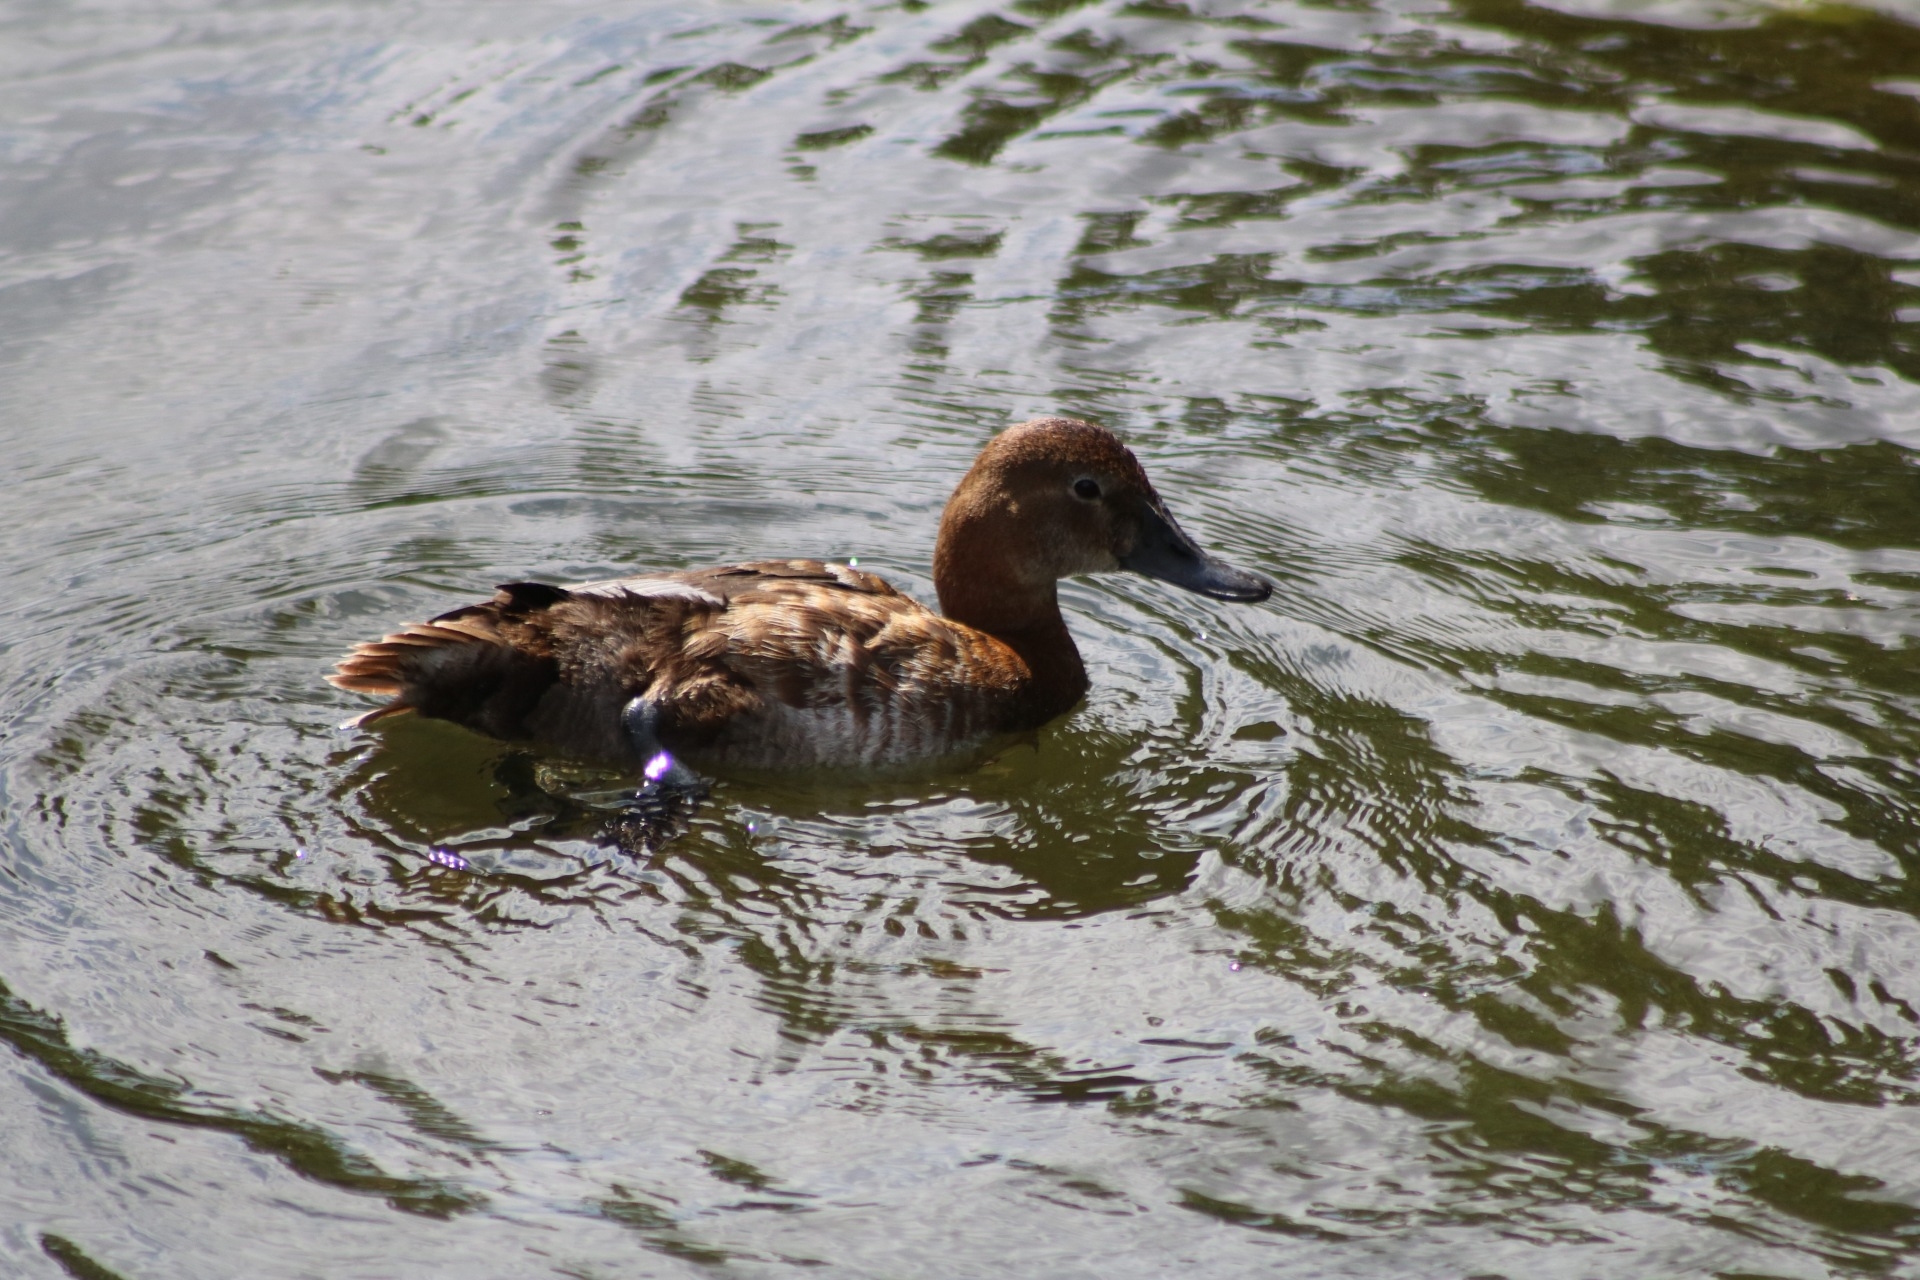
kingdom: Animalia
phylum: Chordata
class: Aves
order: Anseriformes
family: Anatidae
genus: Aythya
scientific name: Aythya ferina
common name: Common pochard
